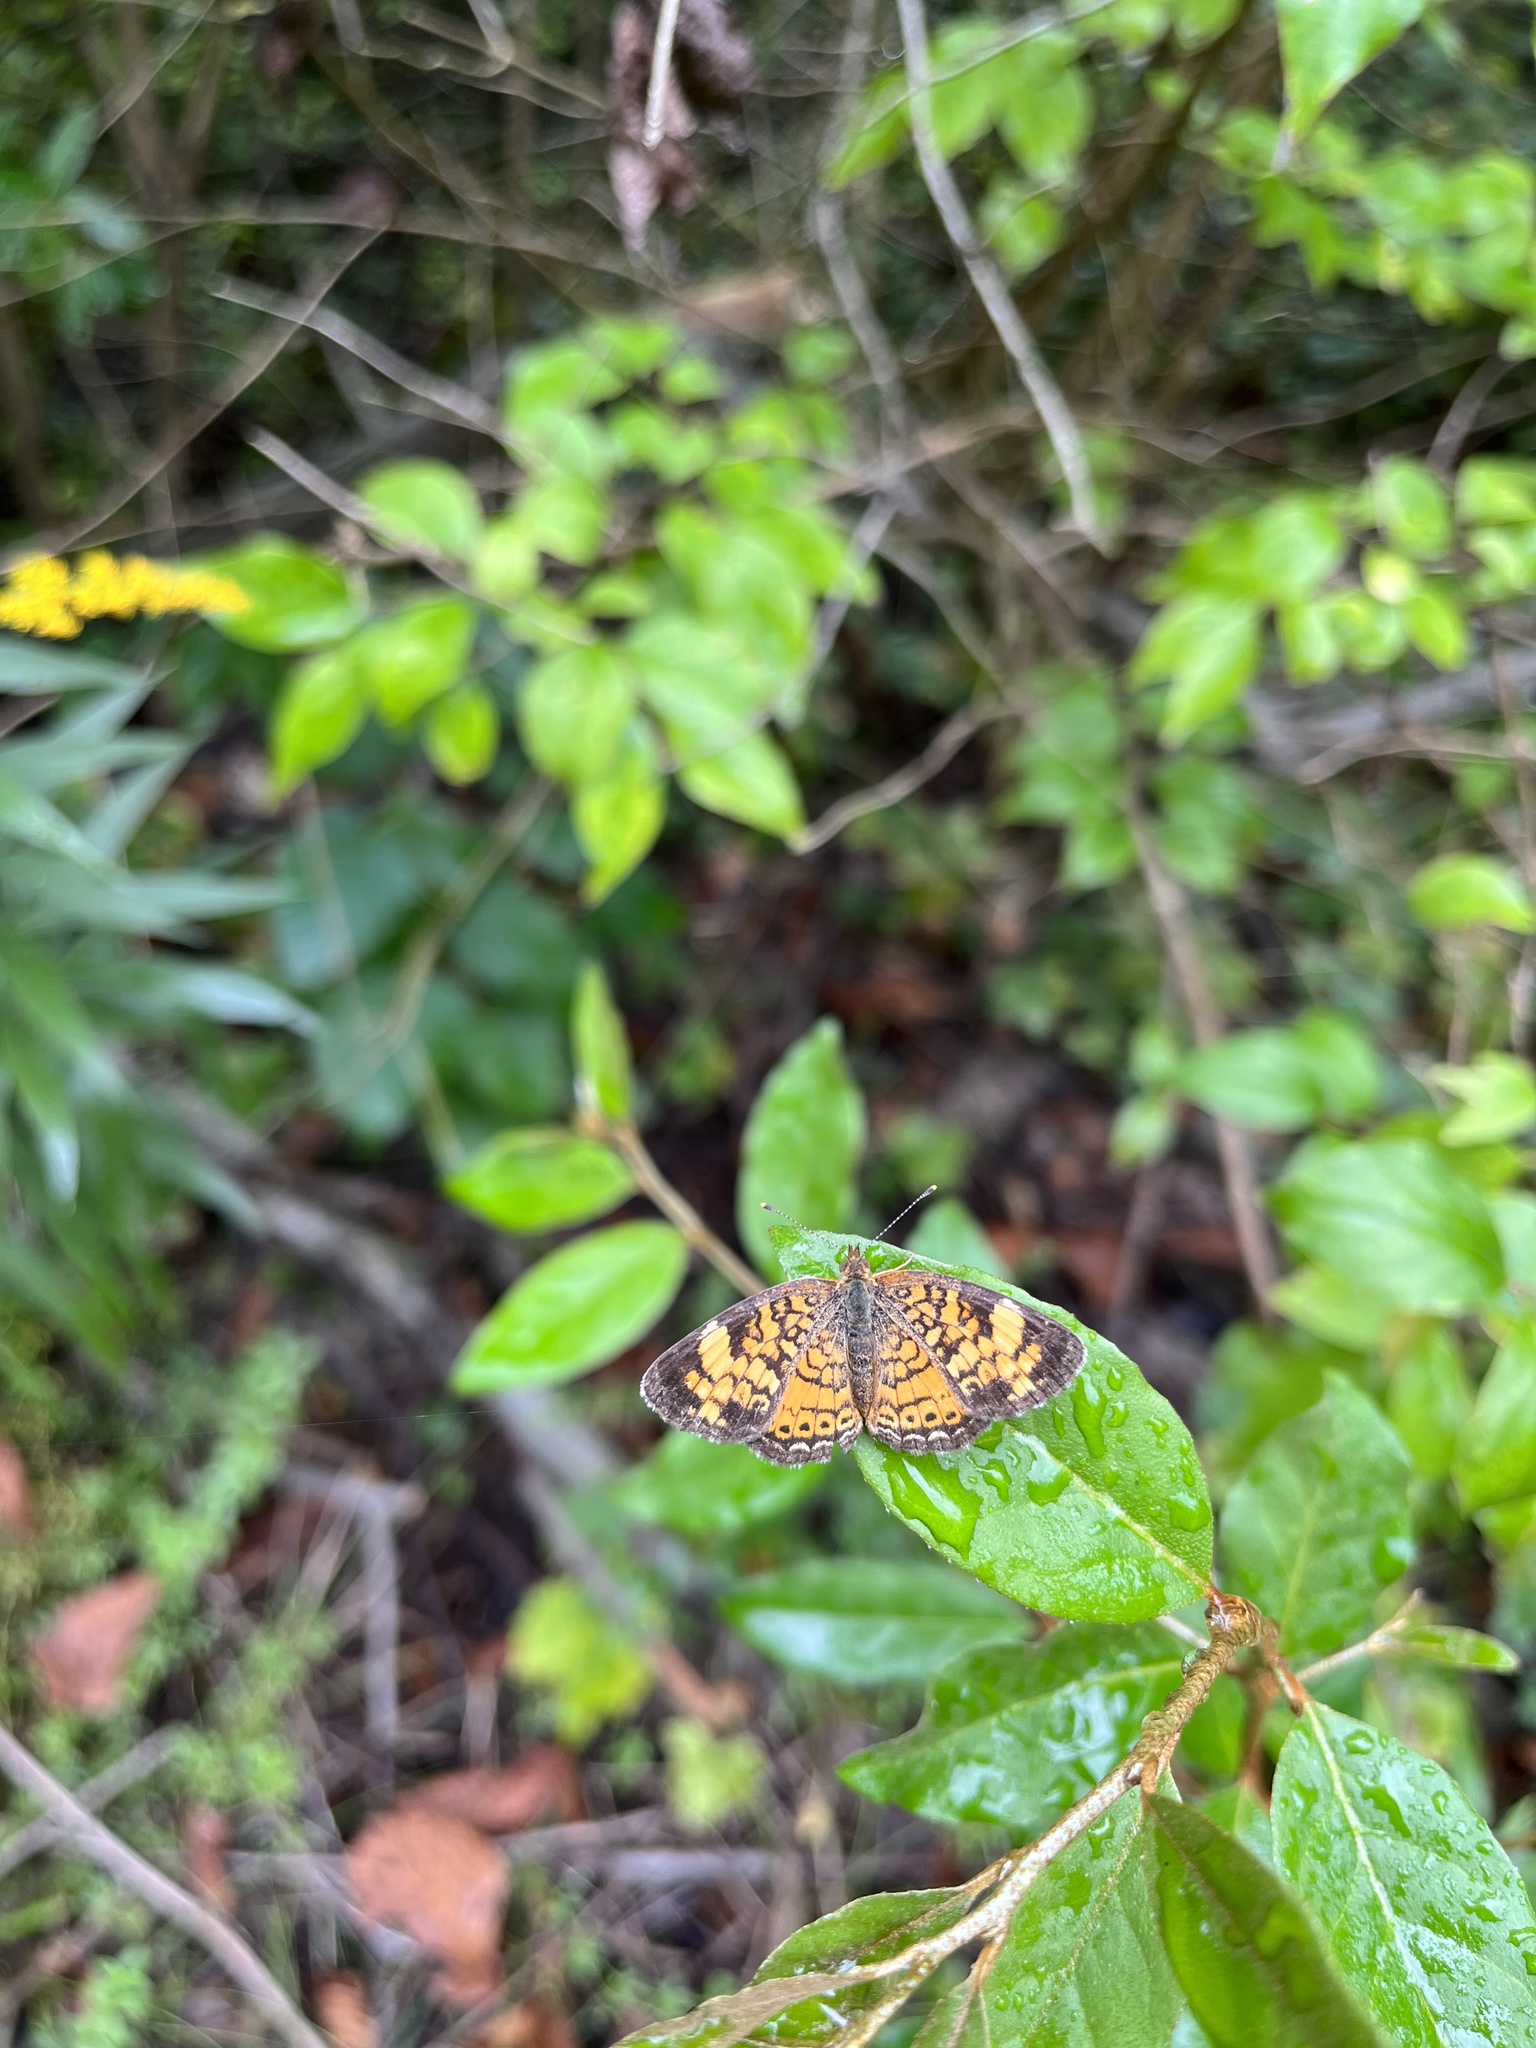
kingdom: Animalia
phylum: Arthropoda
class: Insecta
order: Lepidoptera
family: Nymphalidae
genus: Phyciodes
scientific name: Phyciodes tharos
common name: Pearl crescent
